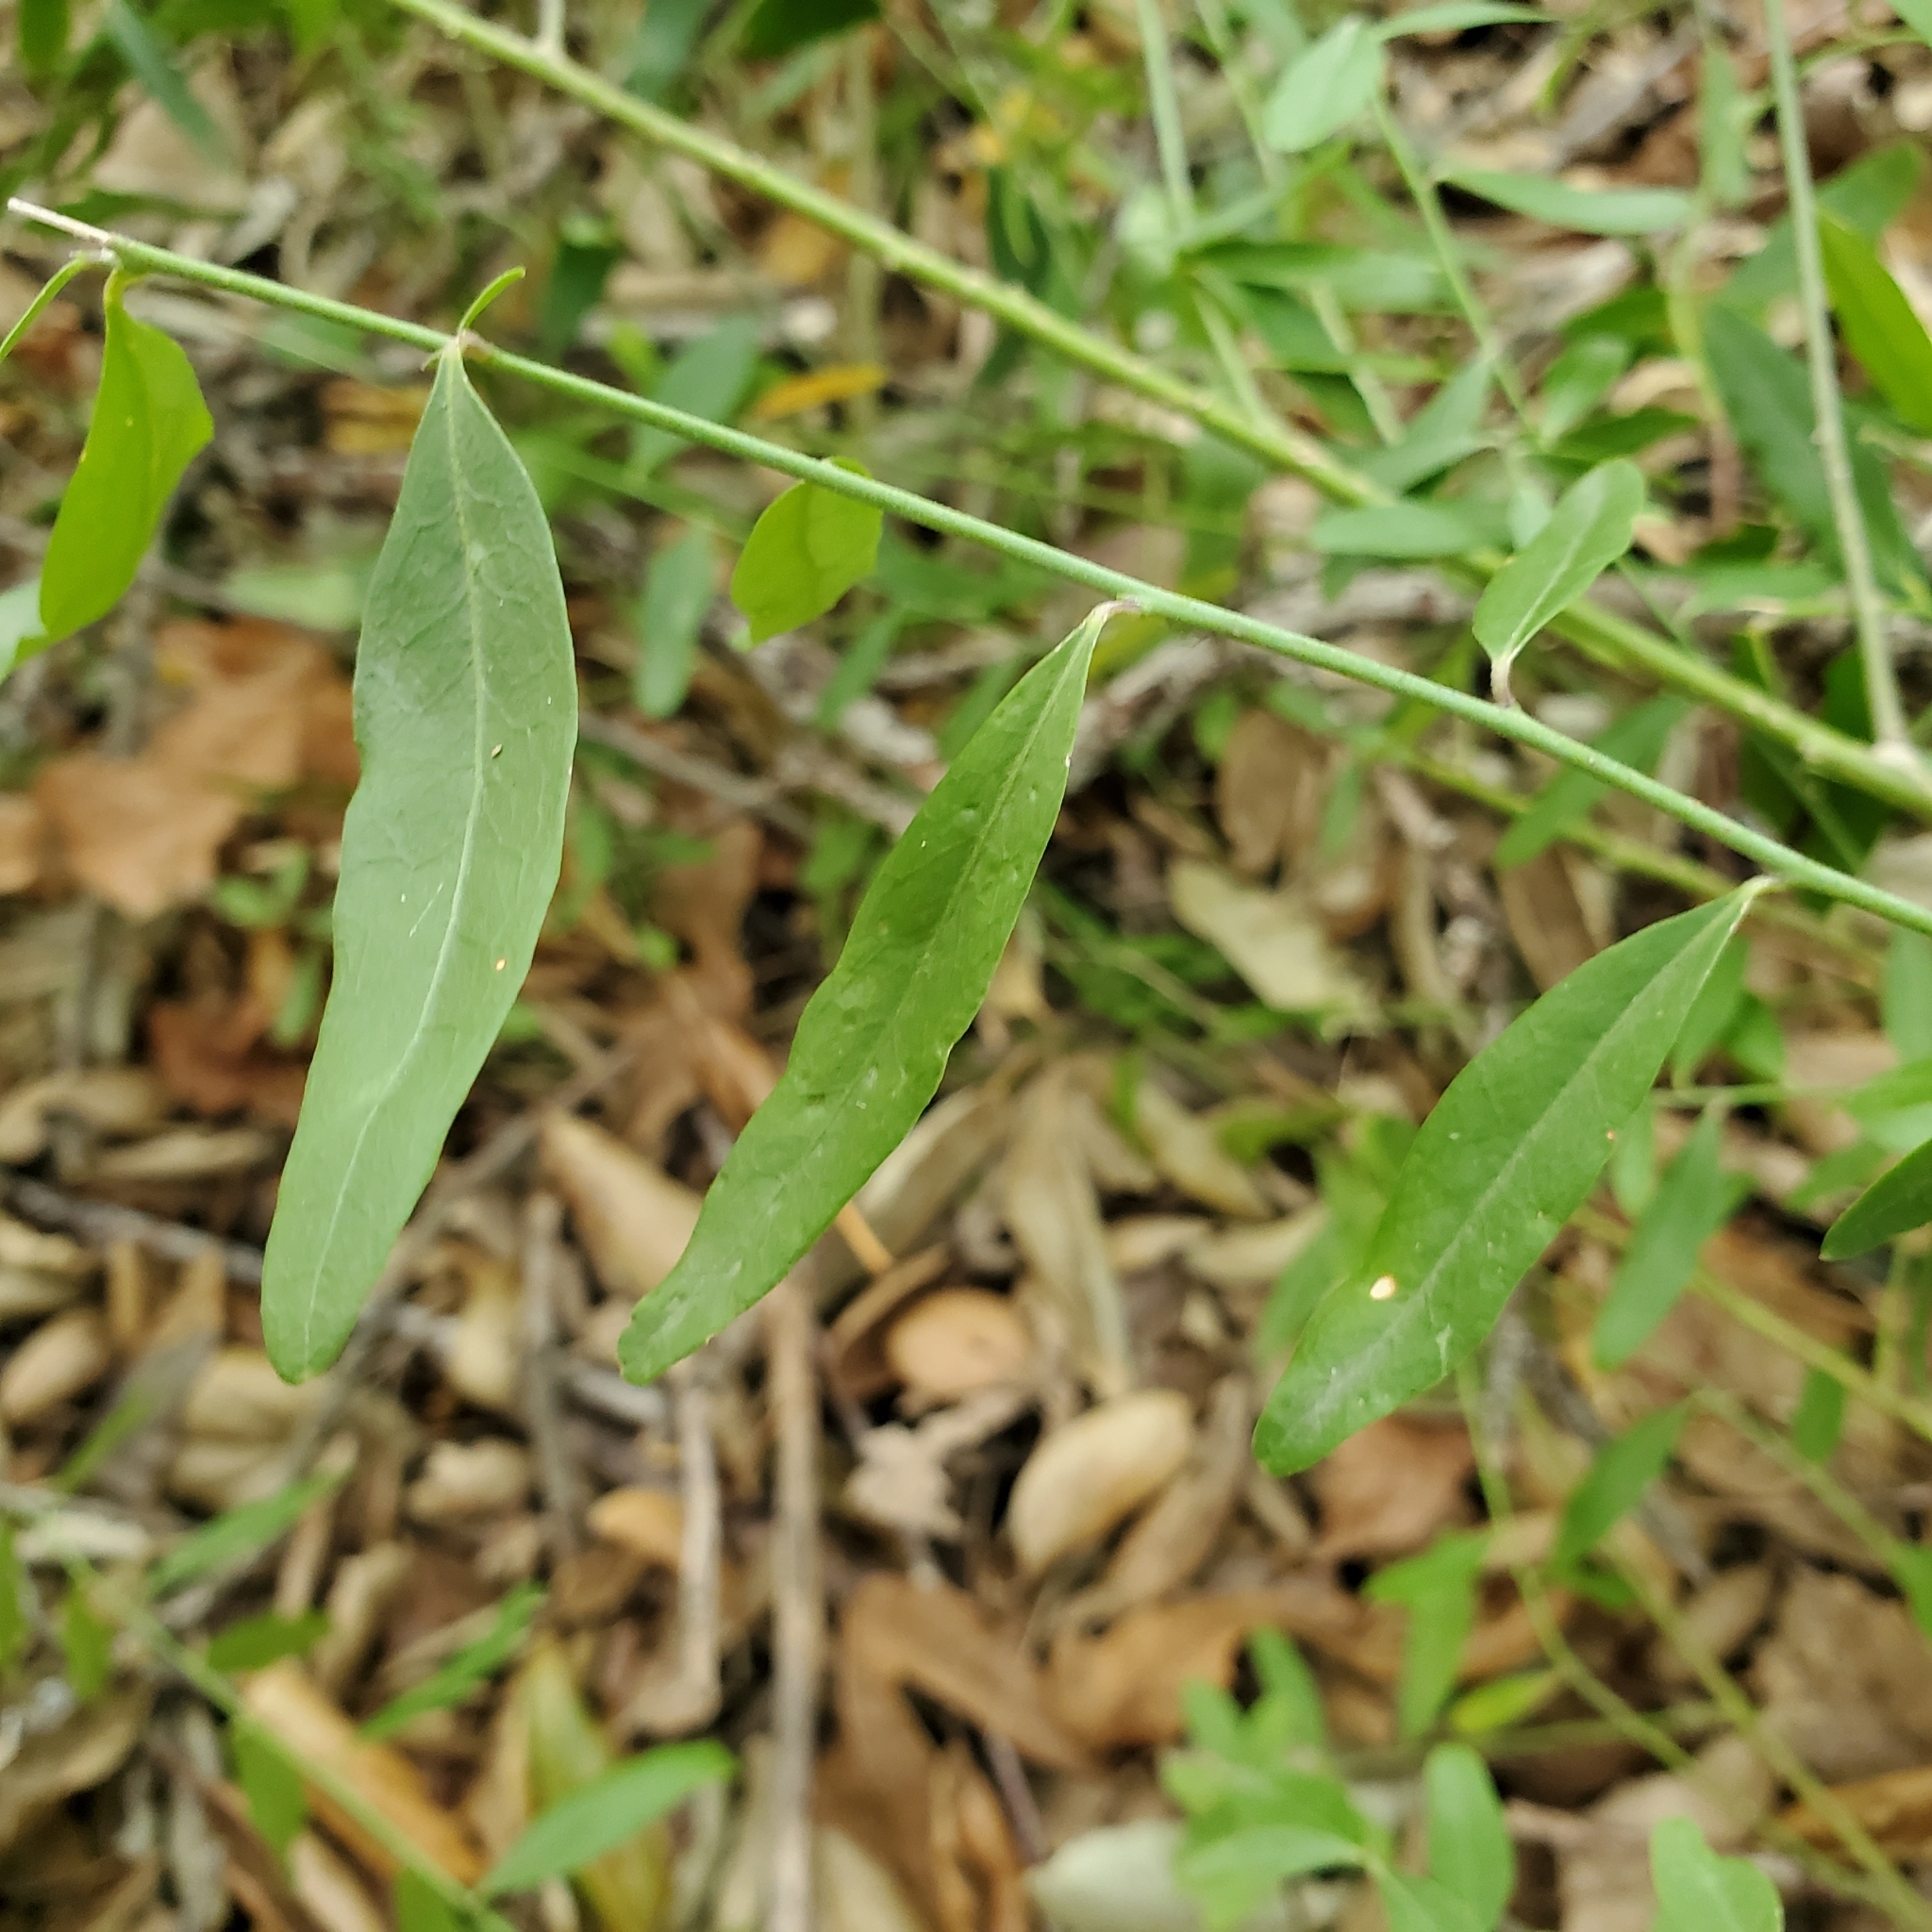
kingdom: Plantae
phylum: Tracheophyta
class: Magnoliopsida
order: Fabales
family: Polygalaceae
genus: Rhinotropis
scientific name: Rhinotropis cornuta
